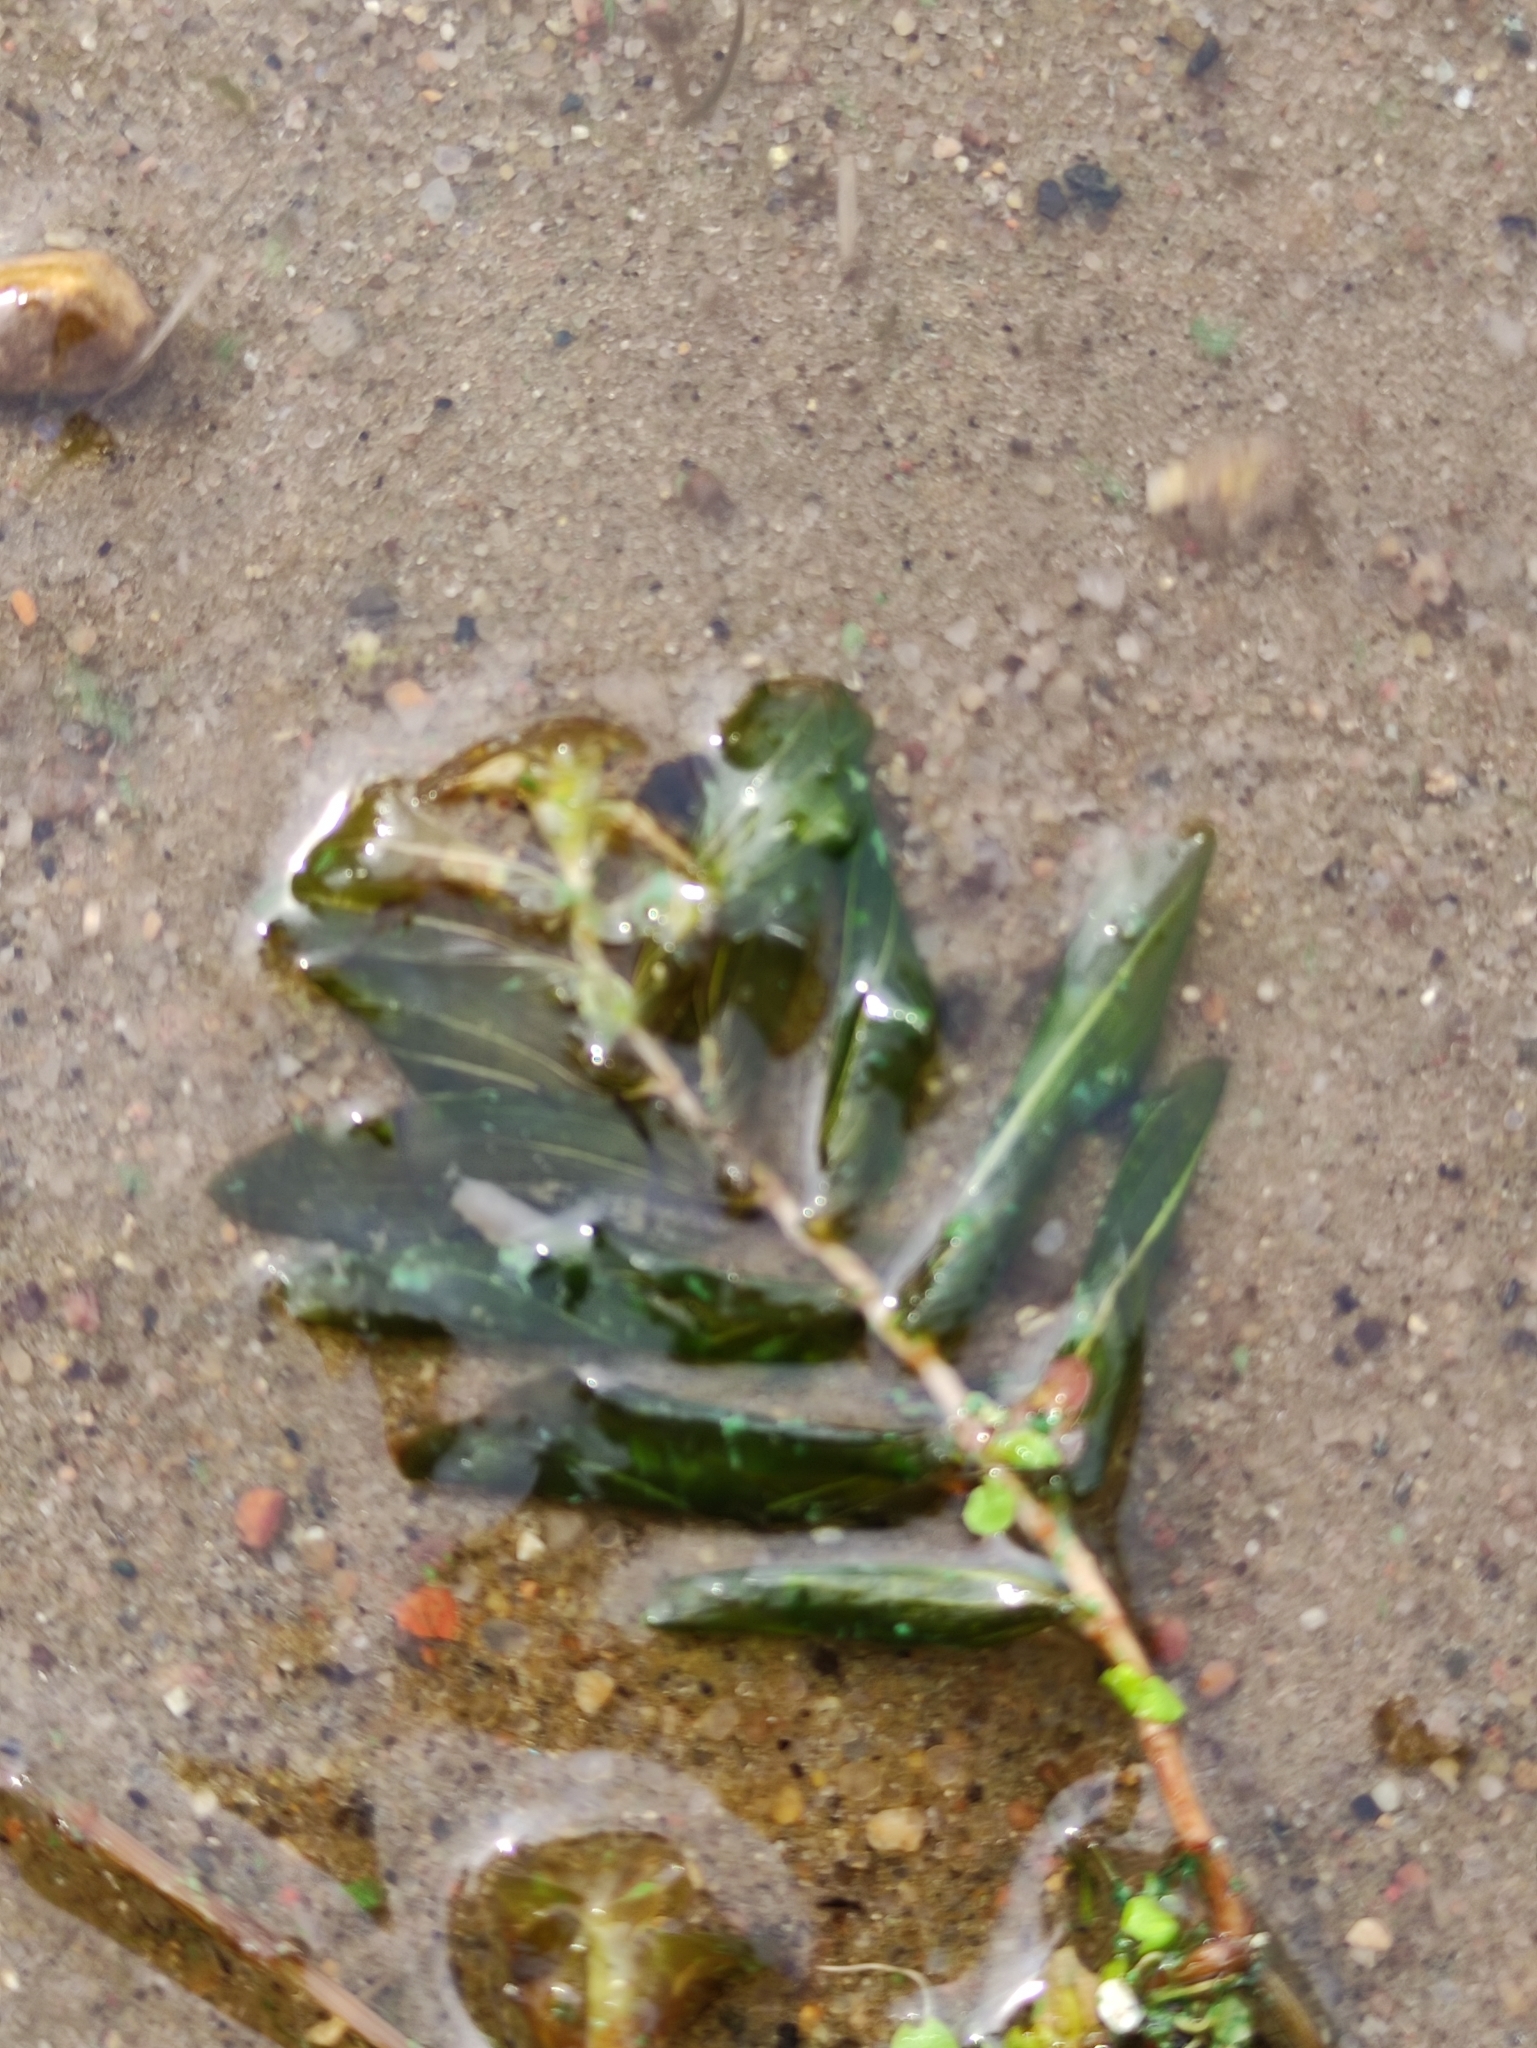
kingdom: Plantae
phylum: Tracheophyta
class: Liliopsida
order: Alismatales
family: Potamogetonaceae
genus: Potamogeton
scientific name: Potamogeton perfoliatus
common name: Perfoliate pondweed
